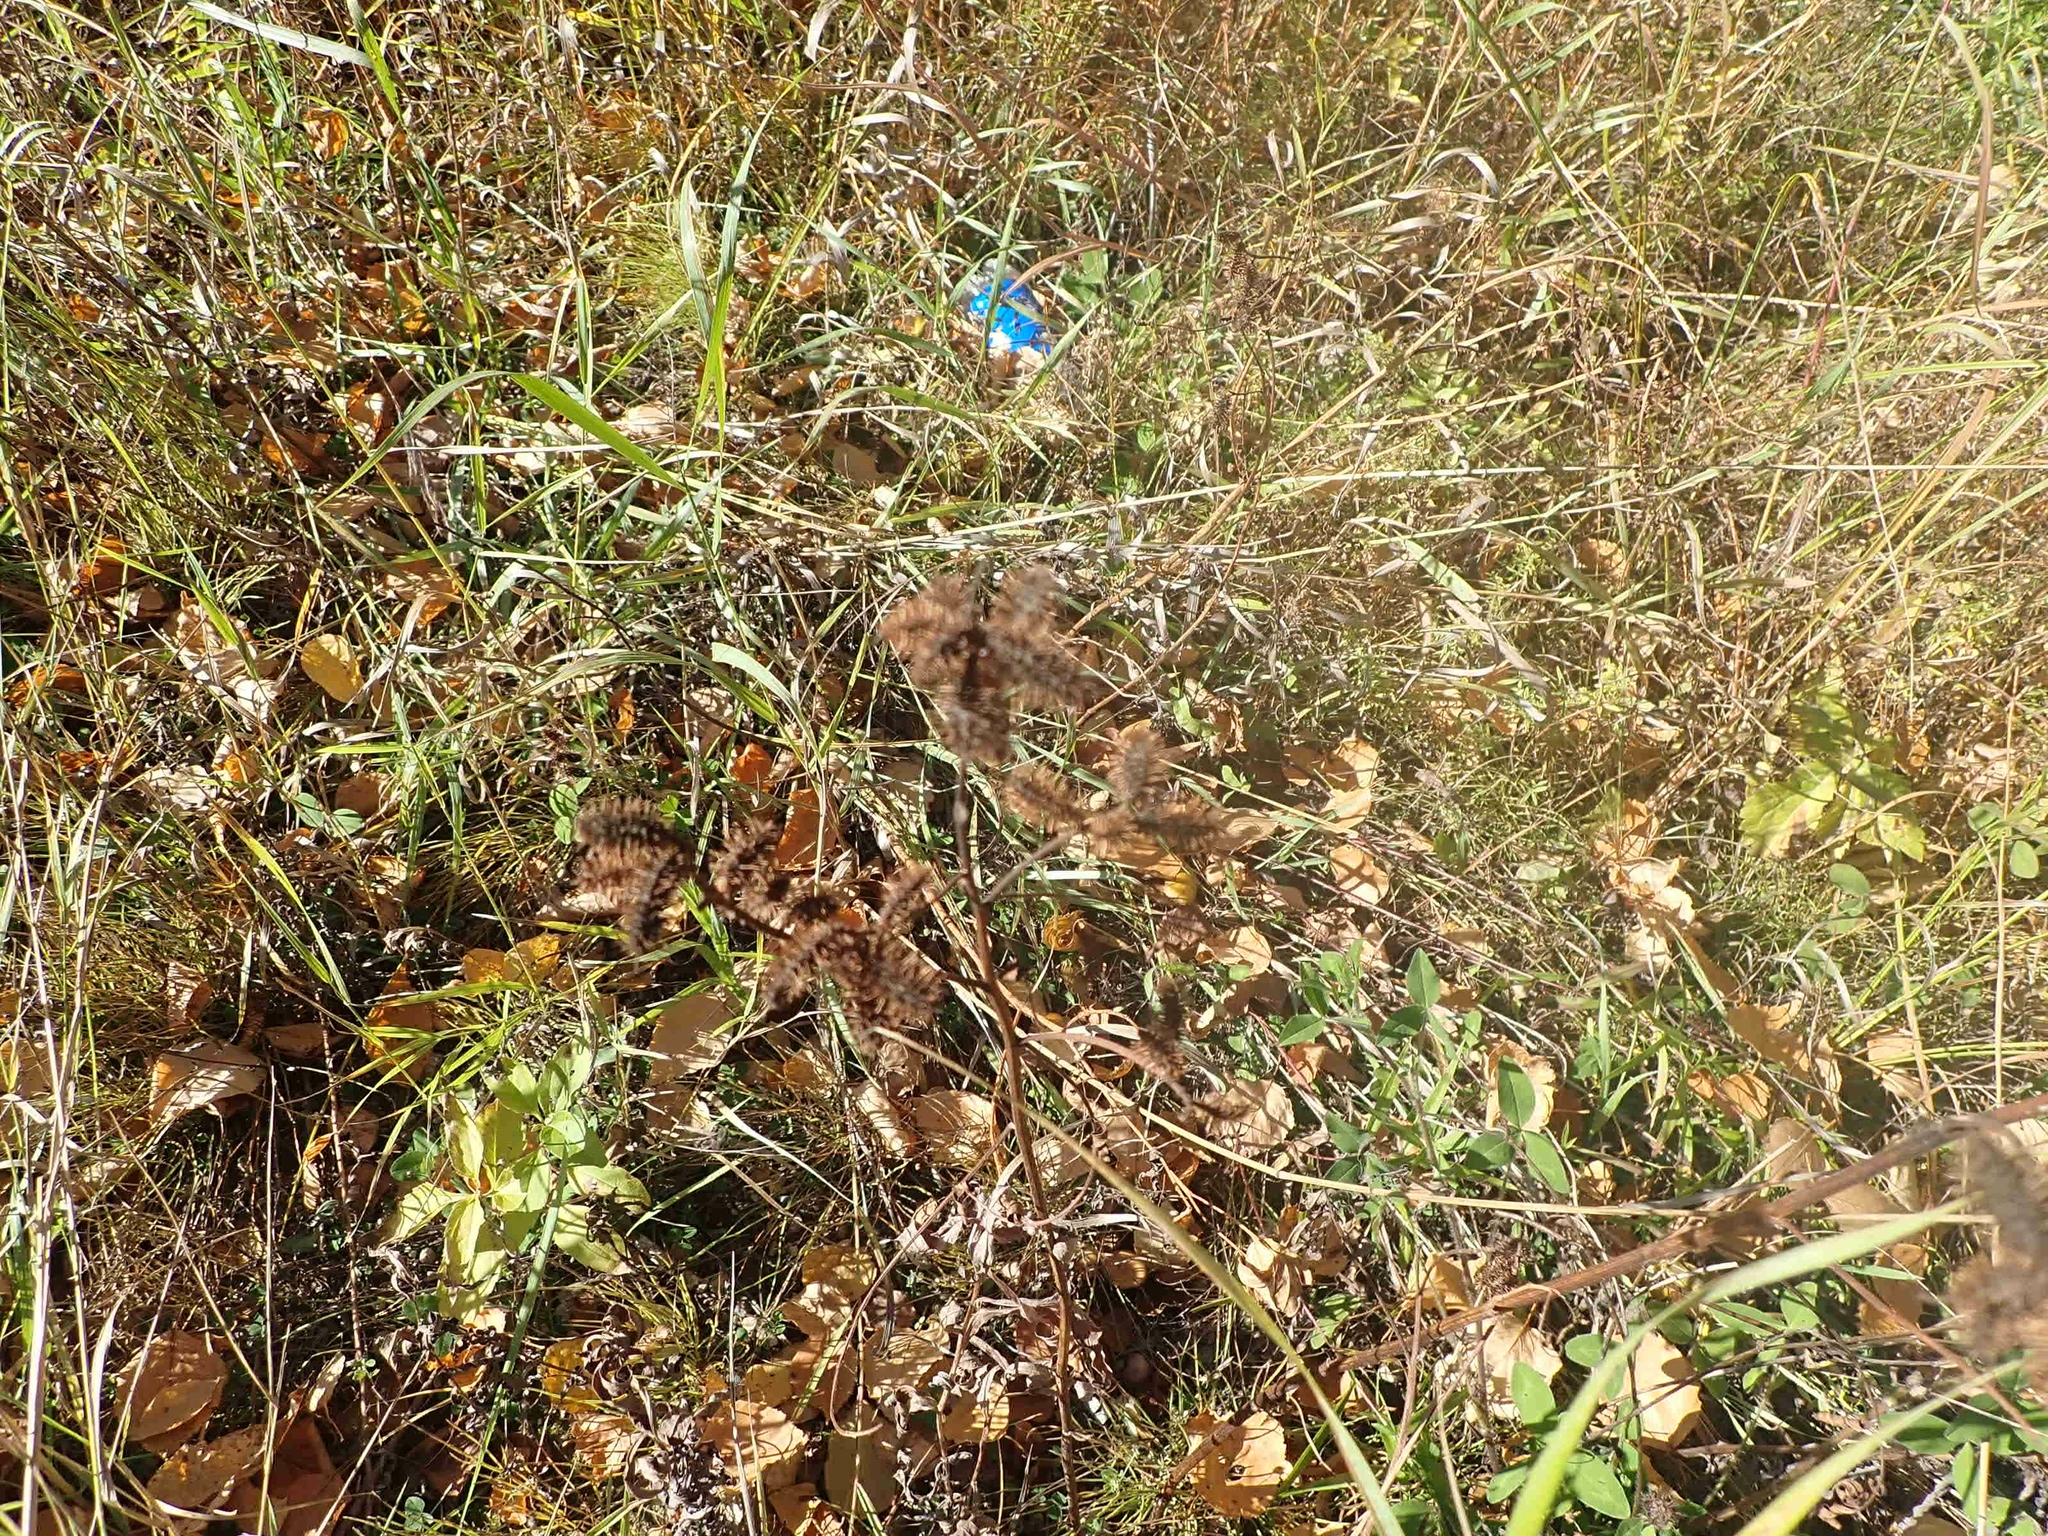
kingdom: Plantae
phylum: Tracheophyta
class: Magnoliopsida
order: Fabales
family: Fabaceae
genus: Glycyrrhiza
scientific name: Glycyrrhiza lepidota
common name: American liquorice
